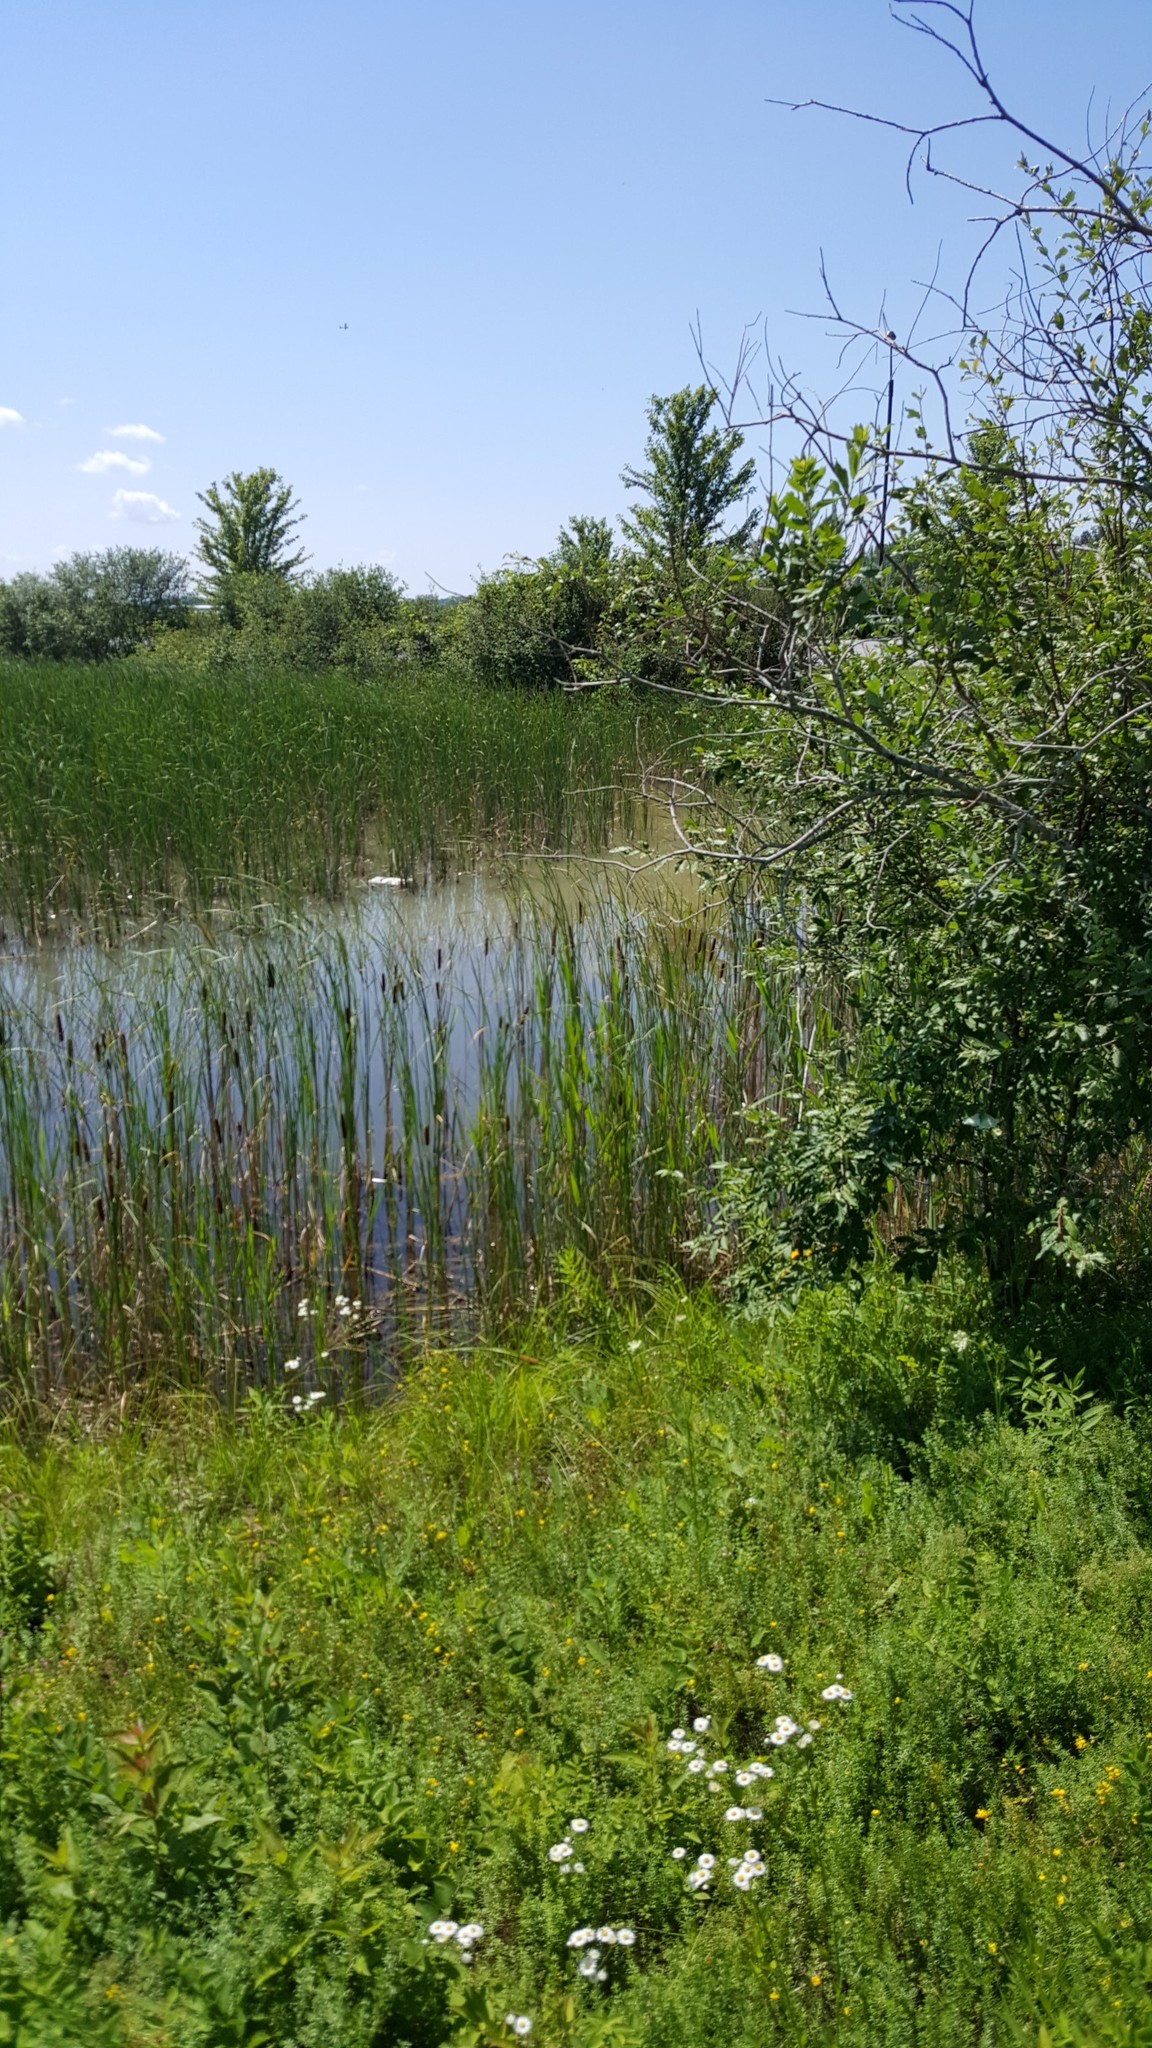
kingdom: Plantae
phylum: Tracheophyta
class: Liliopsida
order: Poales
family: Typhaceae
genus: Typha
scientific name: Typha latifolia
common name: Broadleaf cattail
